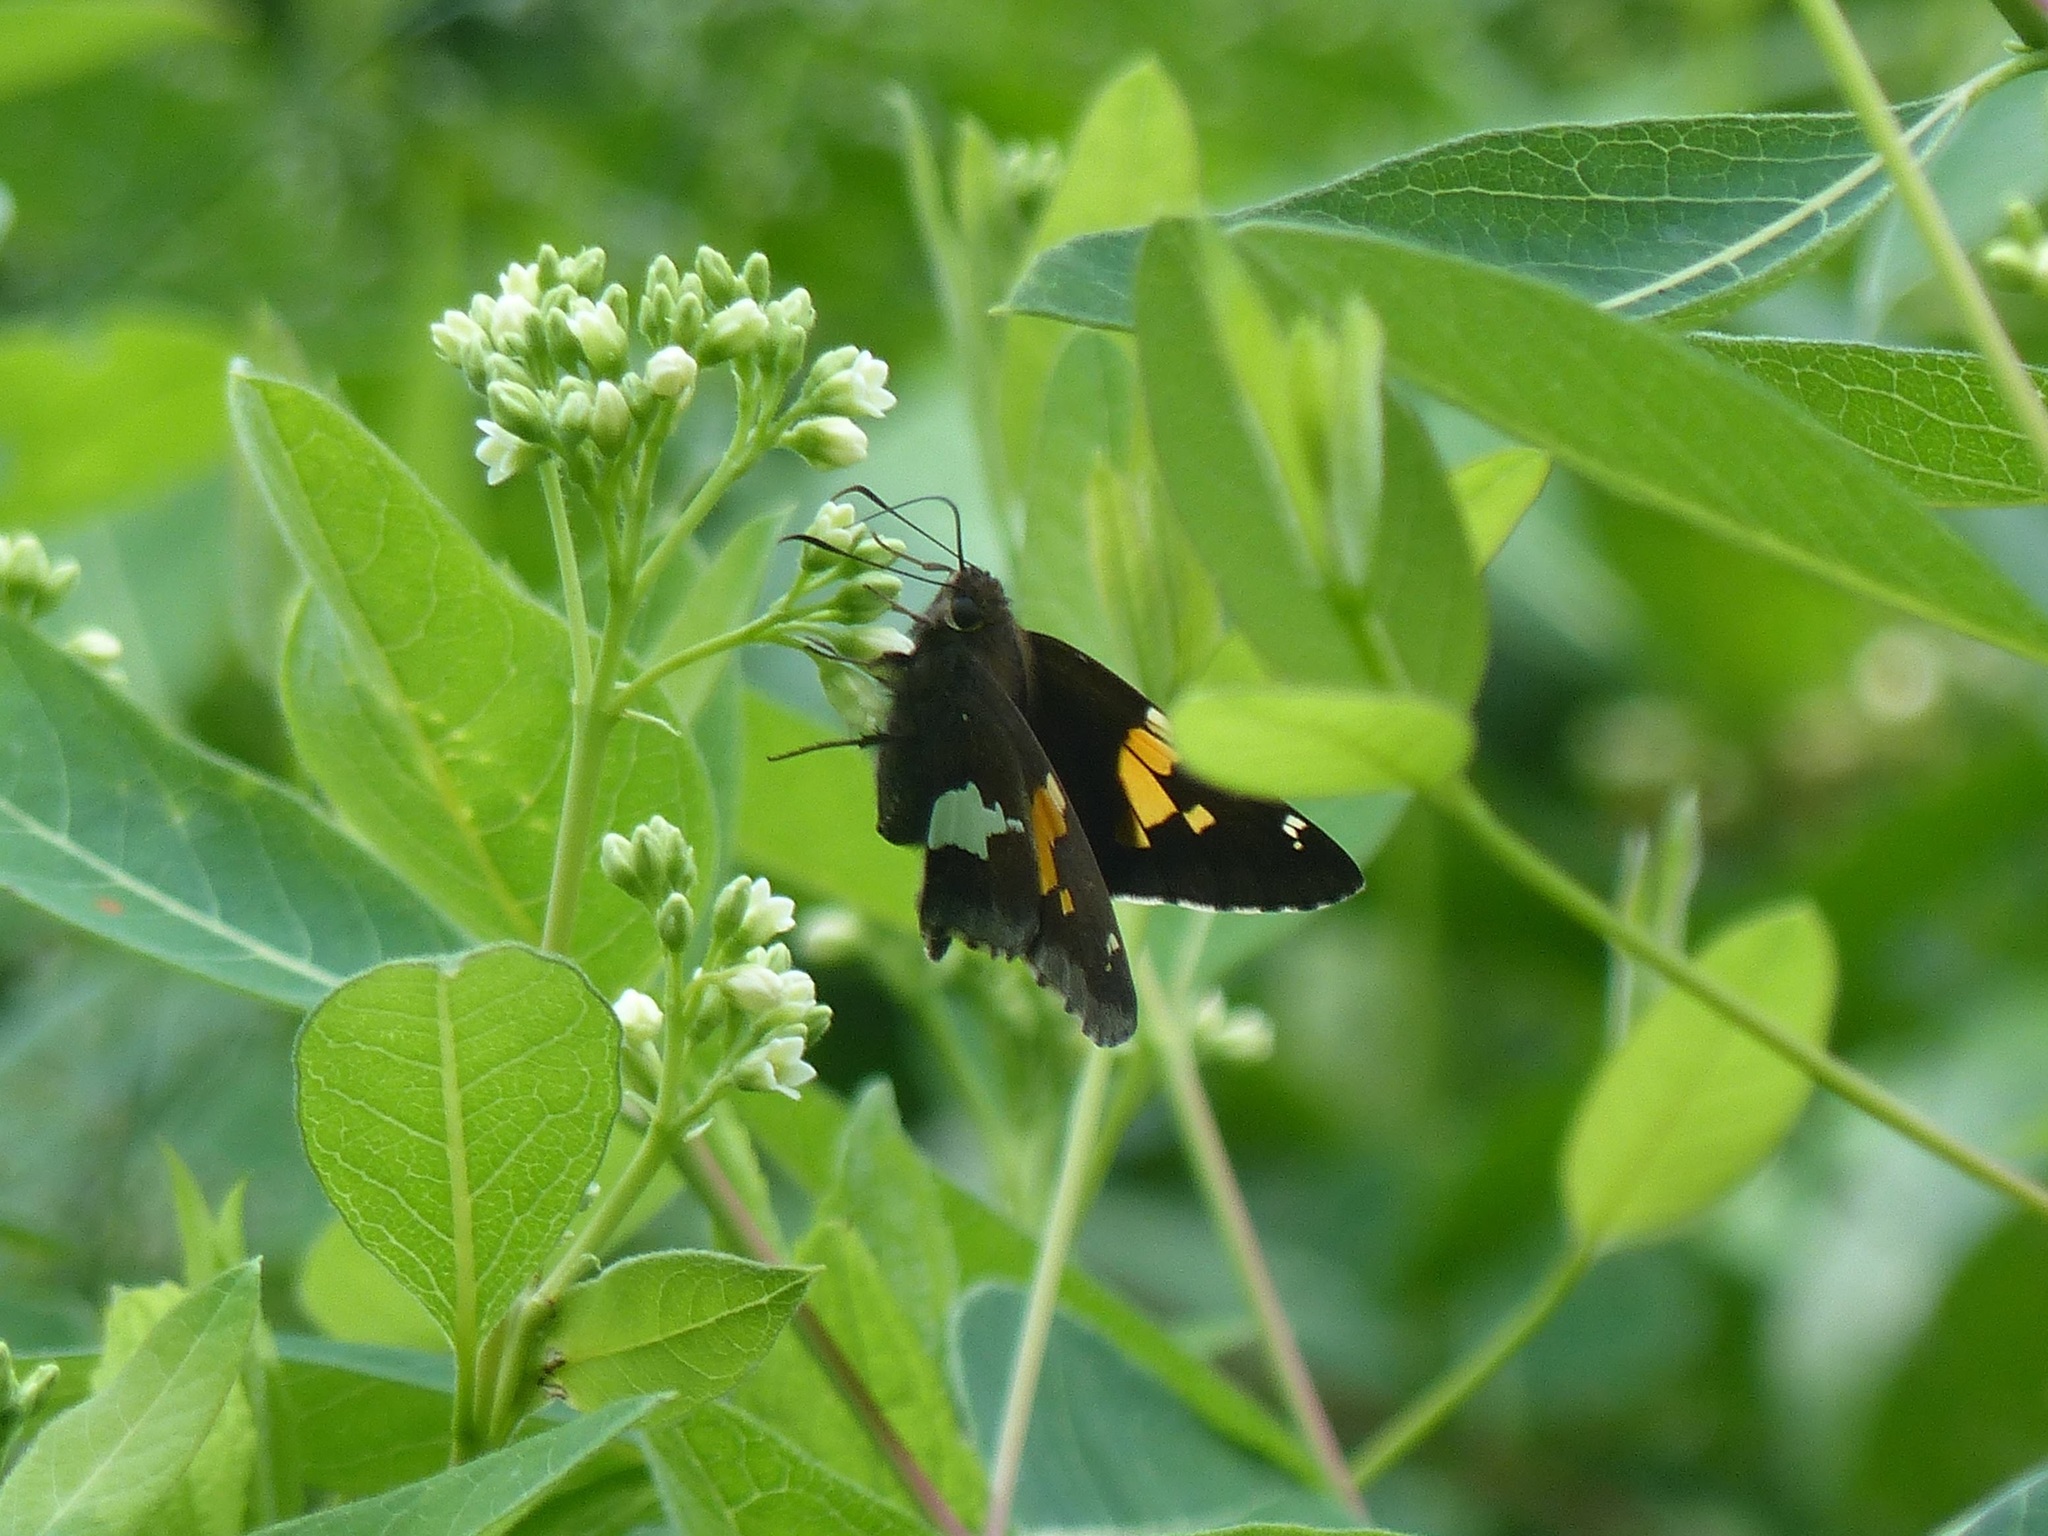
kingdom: Animalia
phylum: Arthropoda
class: Insecta
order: Lepidoptera
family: Hesperiidae
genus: Epargyreus
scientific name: Epargyreus clarus
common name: Silver-spotted skipper
